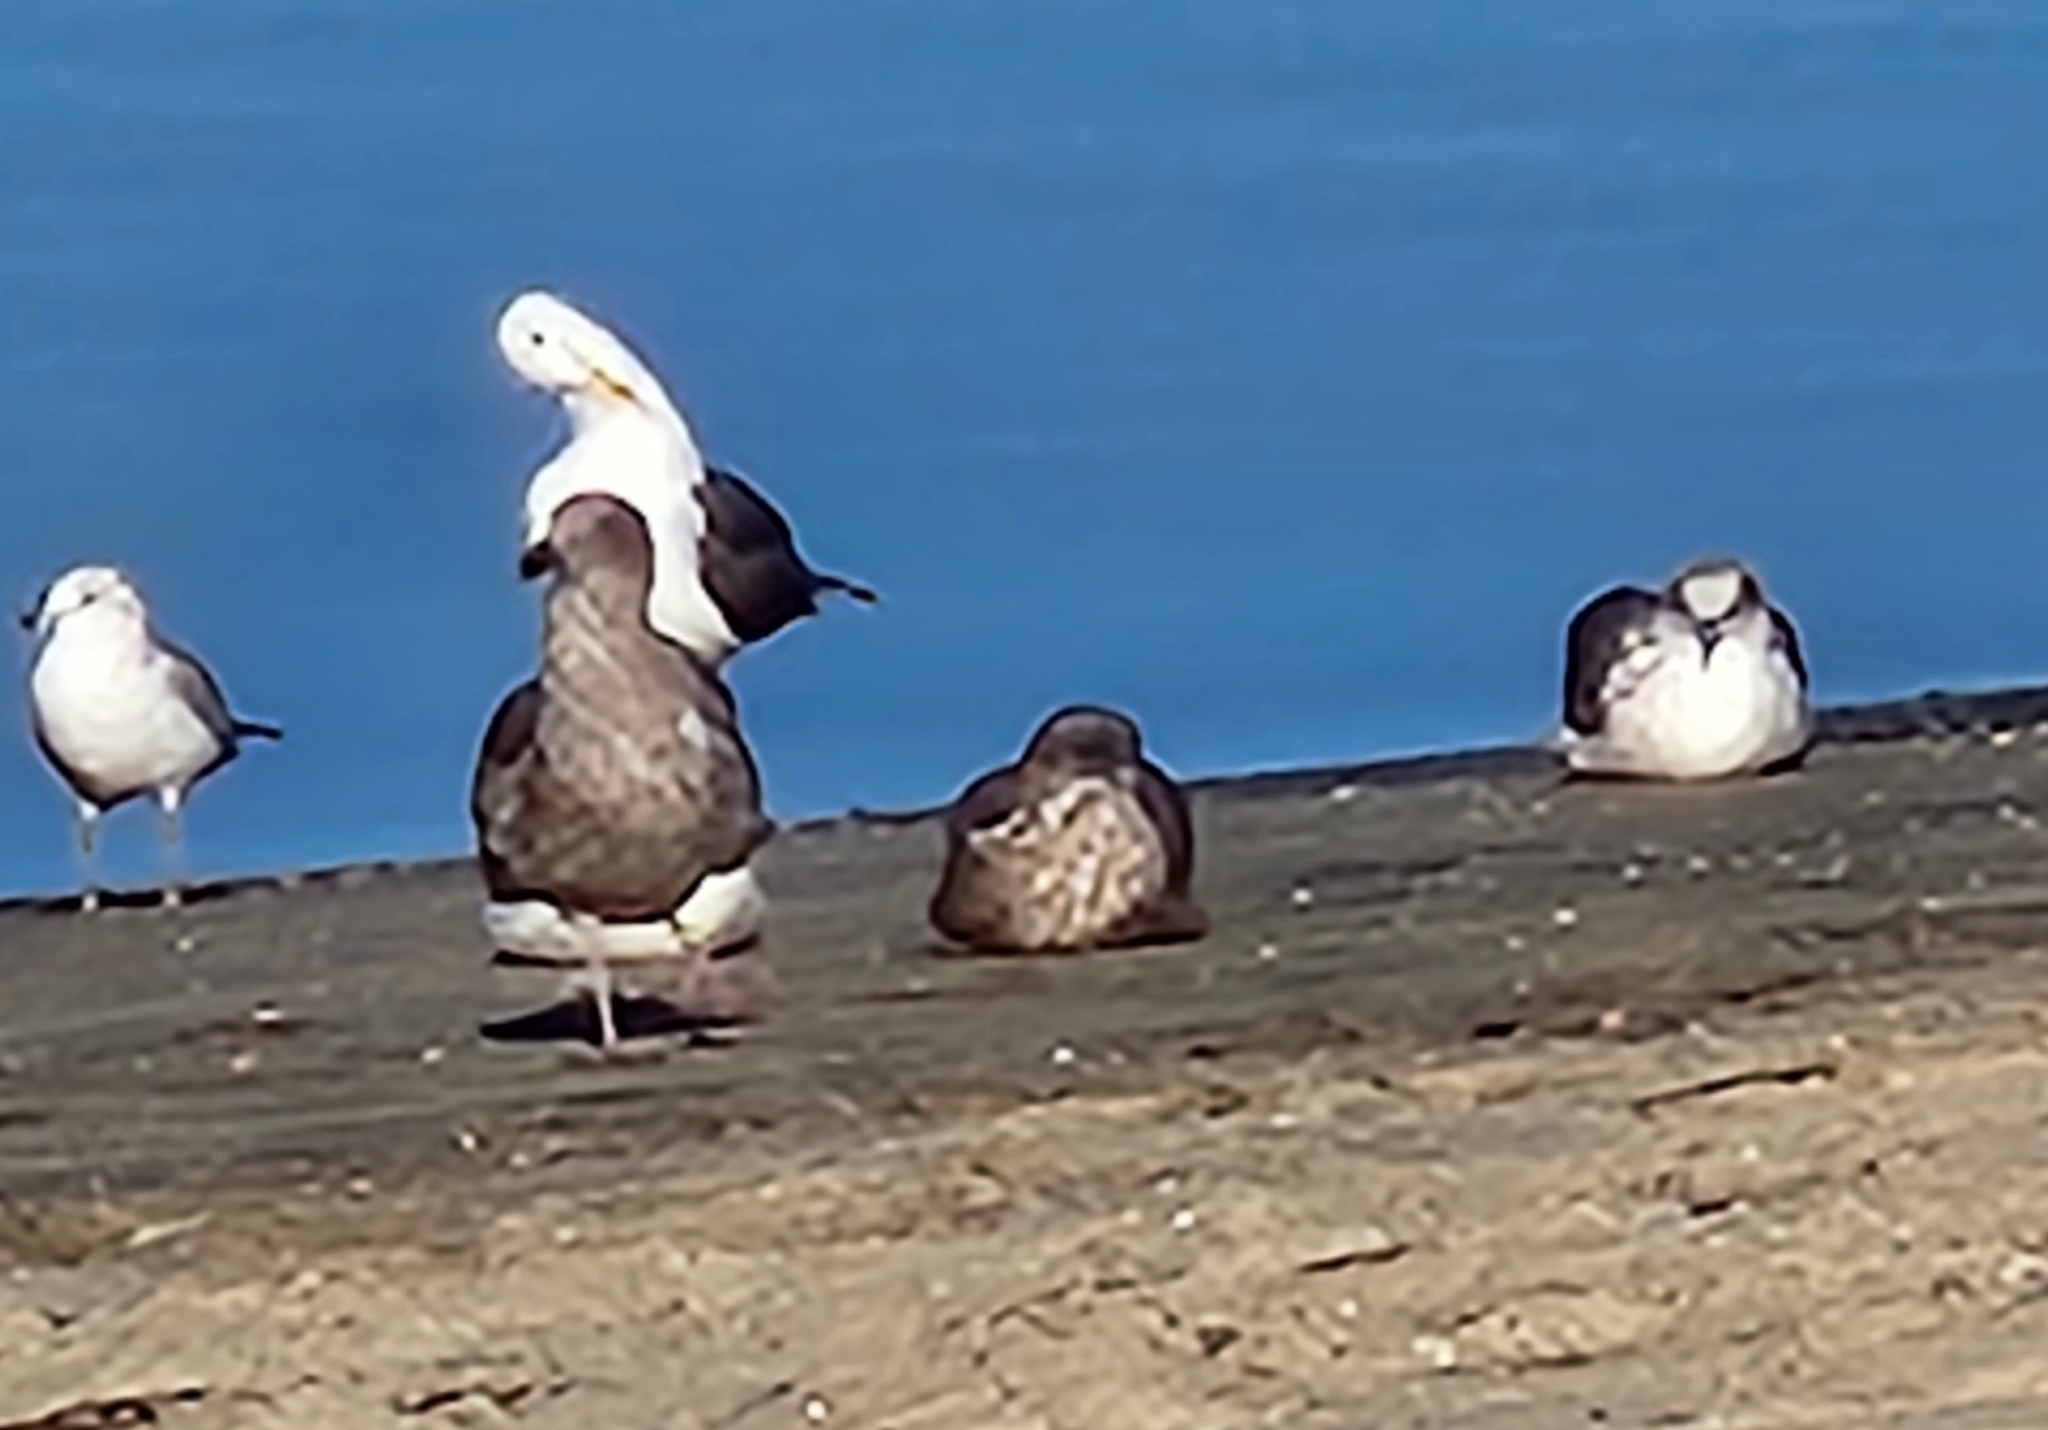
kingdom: Animalia
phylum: Chordata
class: Aves
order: Charadriiformes
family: Laridae
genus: Larus
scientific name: Larus occidentalis
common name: Western gull
